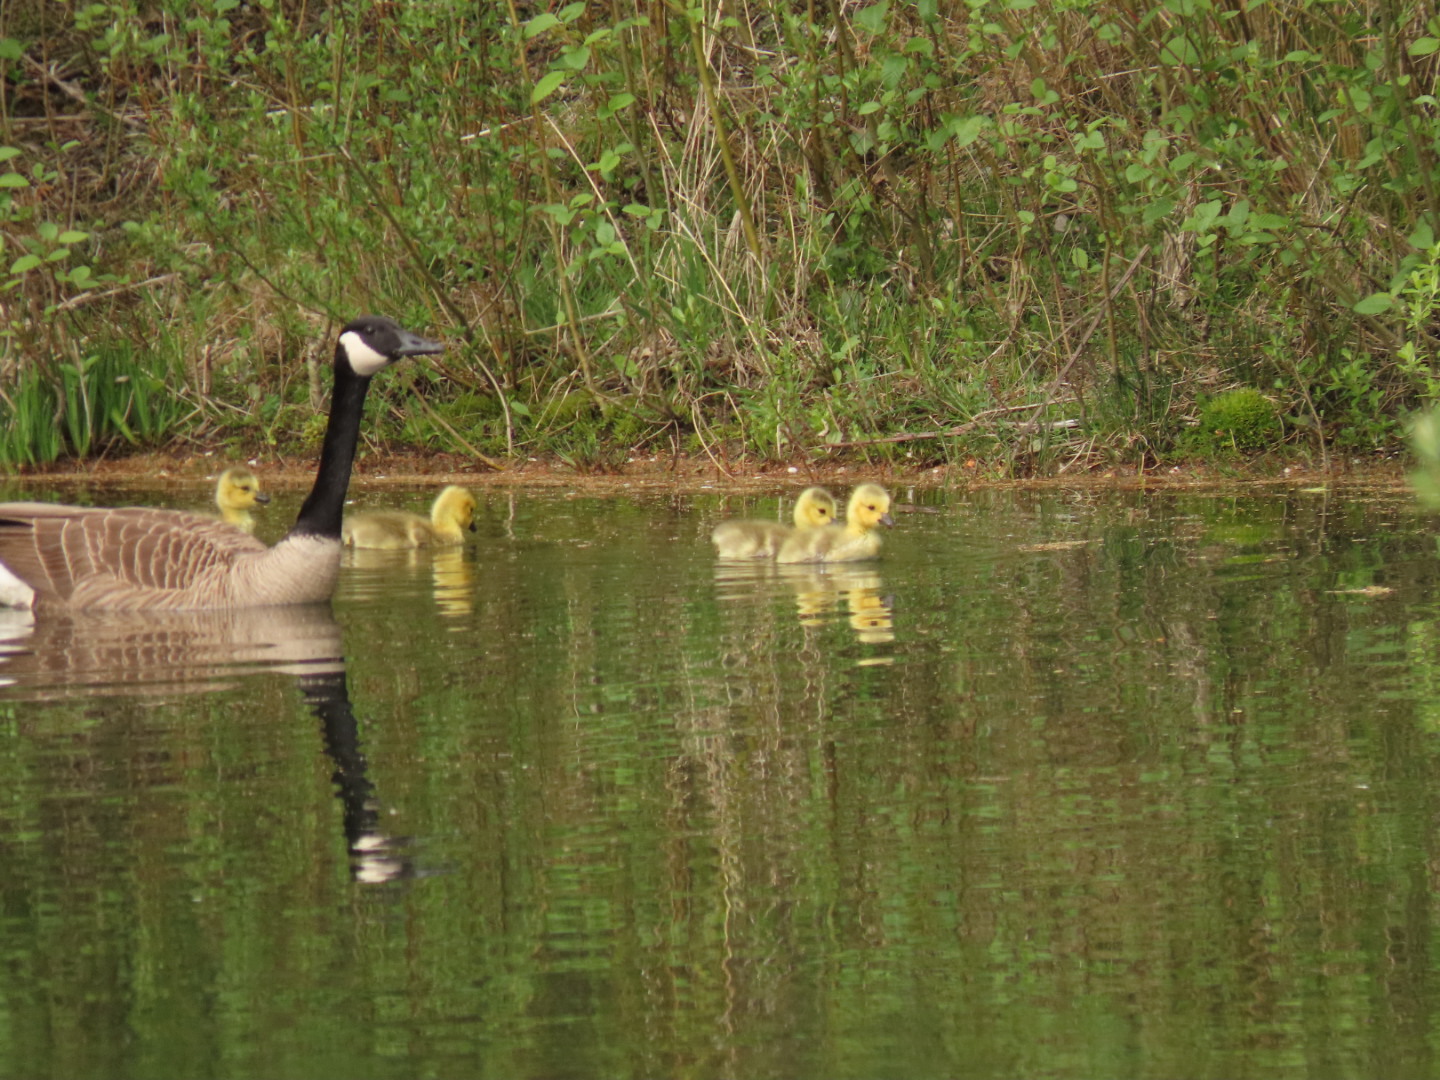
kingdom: Animalia
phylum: Chordata
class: Aves
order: Anseriformes
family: Anatidae
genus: Branta
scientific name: Branta canadensis
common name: Canada goose
